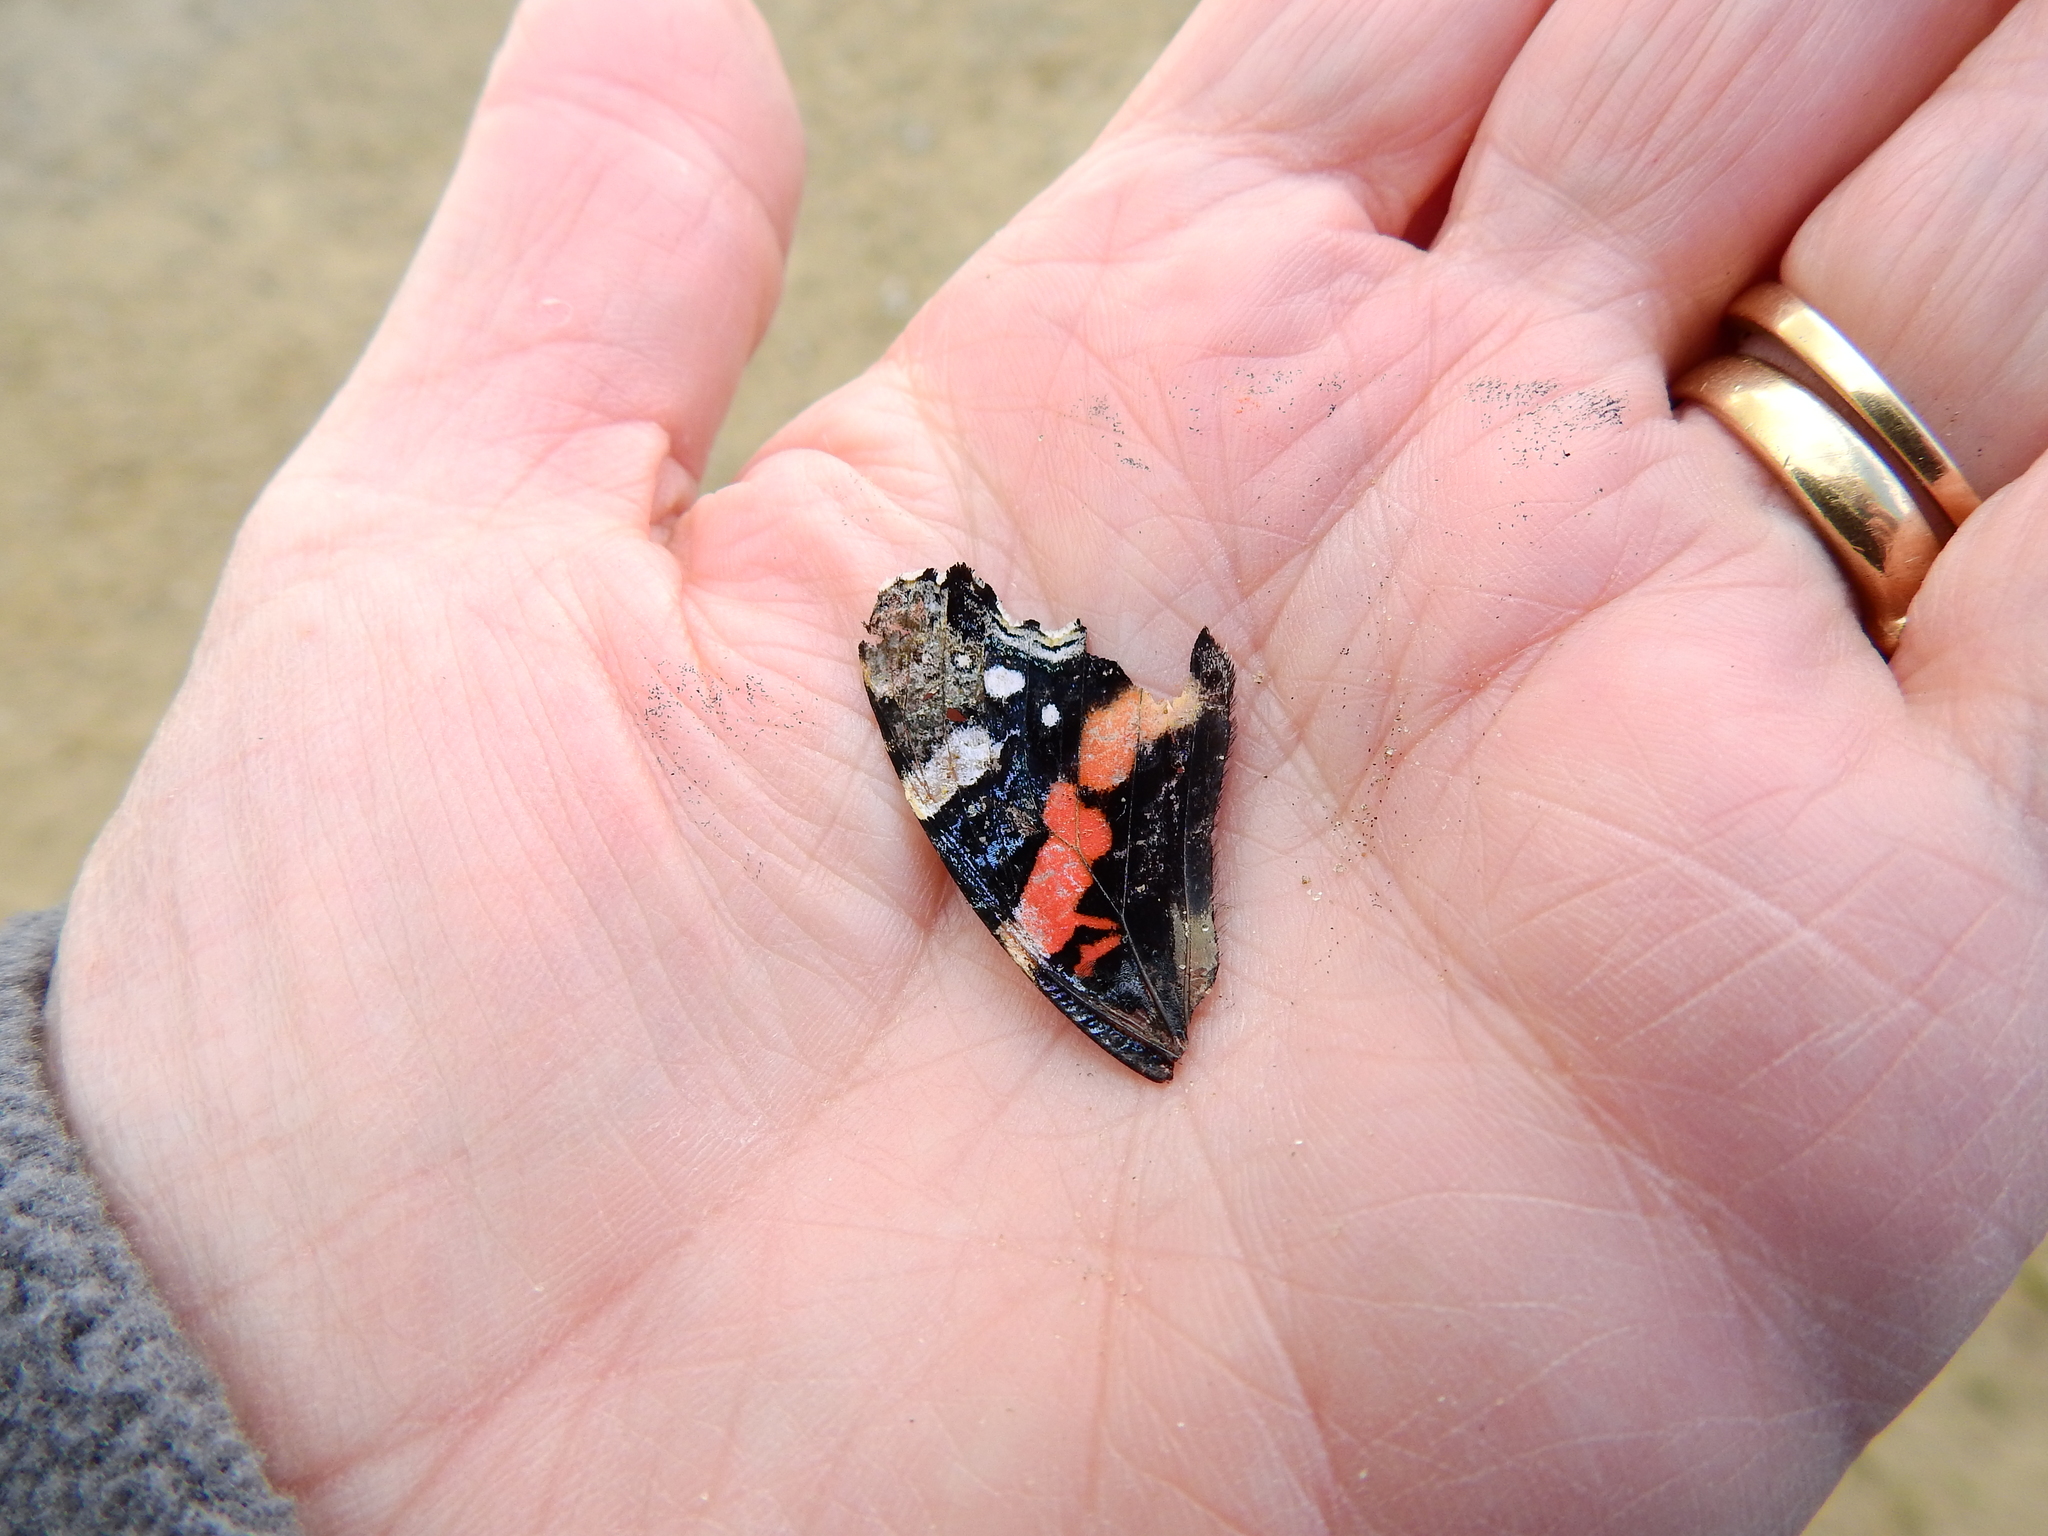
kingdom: Animalia
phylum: Arthropoda
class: Insecta
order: Lepidoptera
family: Nymphalidae
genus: Vanessa
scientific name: Vanessa atalanta
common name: Red admiral
